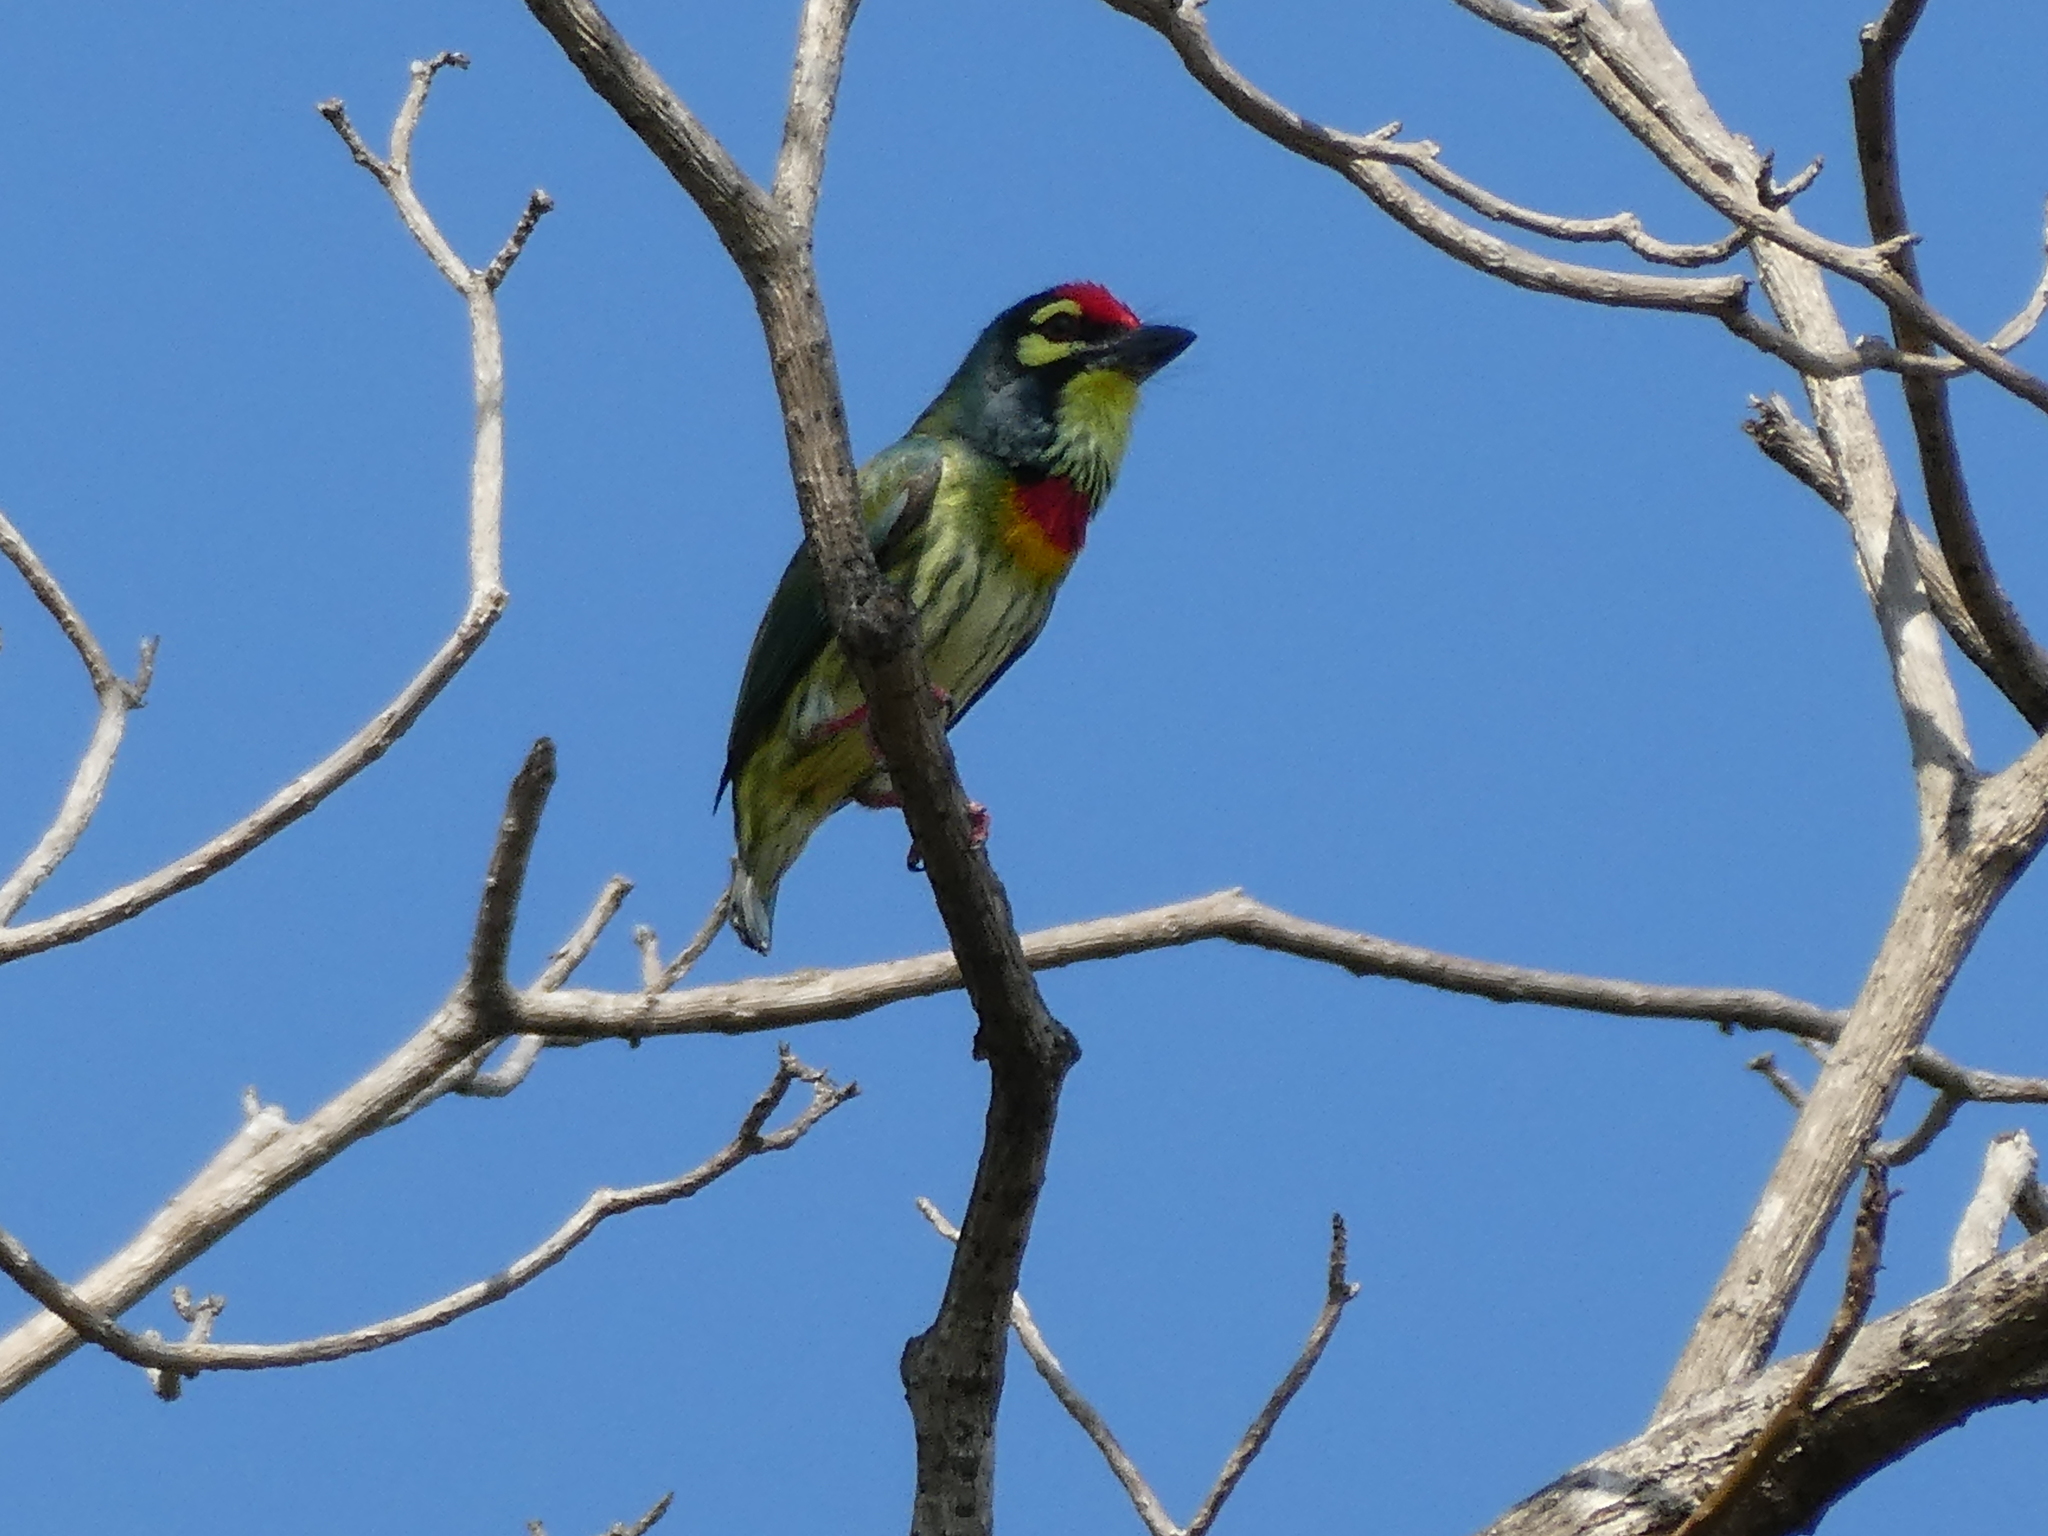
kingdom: Animalia
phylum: Chordata
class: Aves
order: Piciformes
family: Megalaimidae
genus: Psilopogon
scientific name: Psilopogon haemacephalus
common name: Coppersmith barbet
